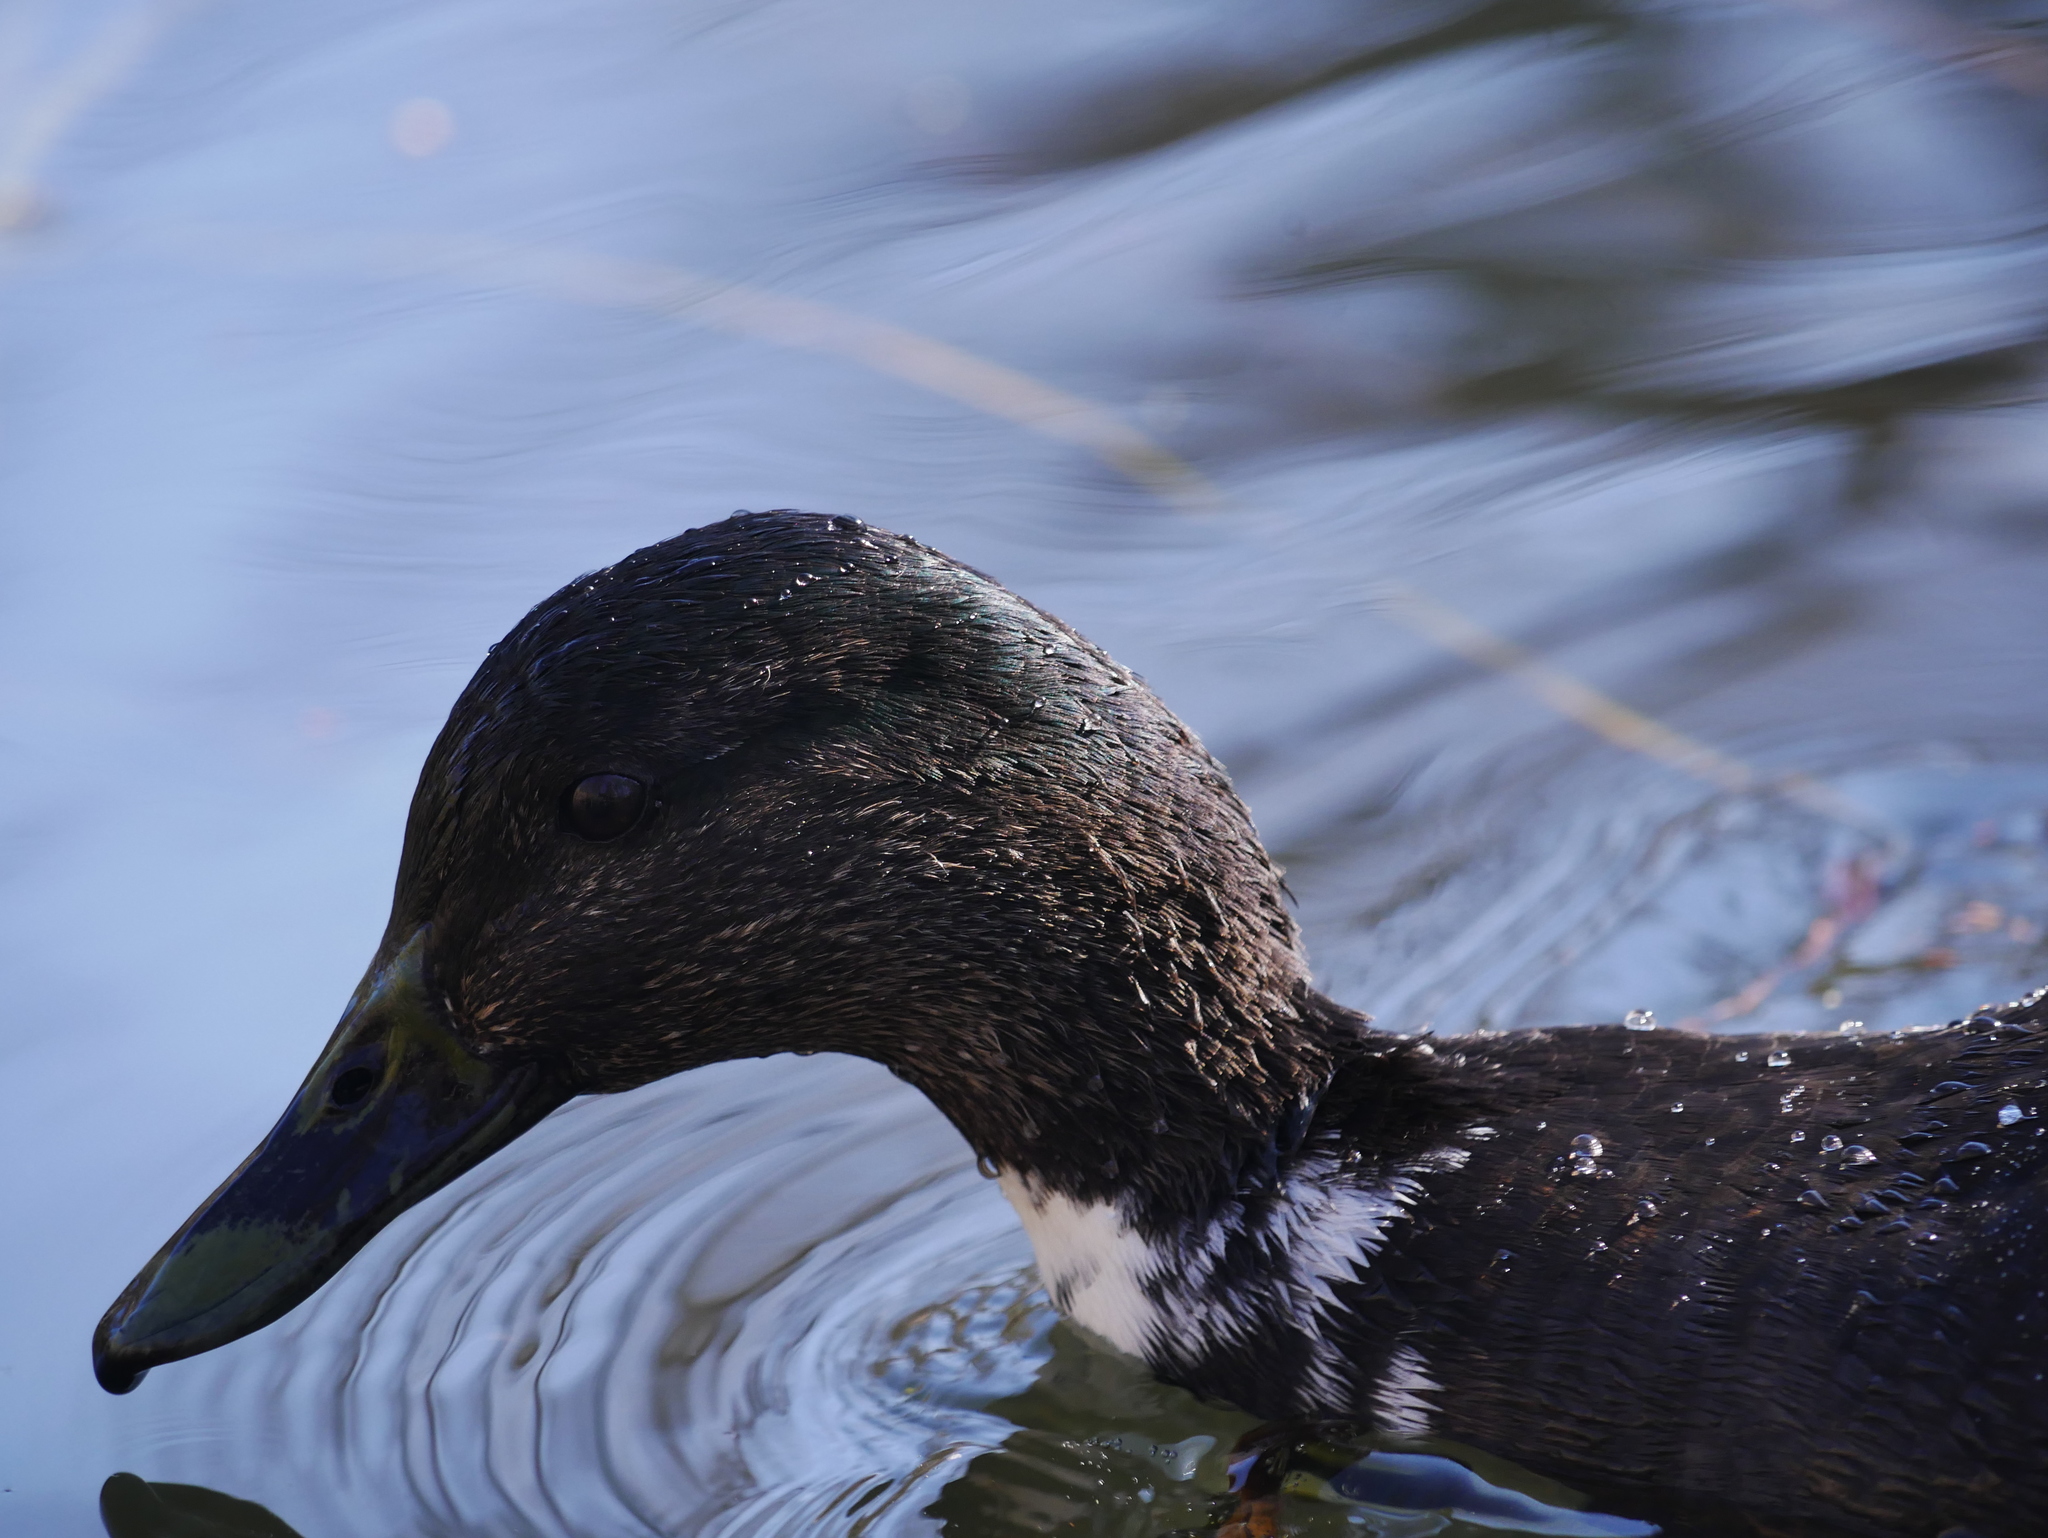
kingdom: Animalia
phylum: Chordata
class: Aves
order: Anseriformes
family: Anatidae
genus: Anas
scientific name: Anas platyrhynchos
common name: Mallard
